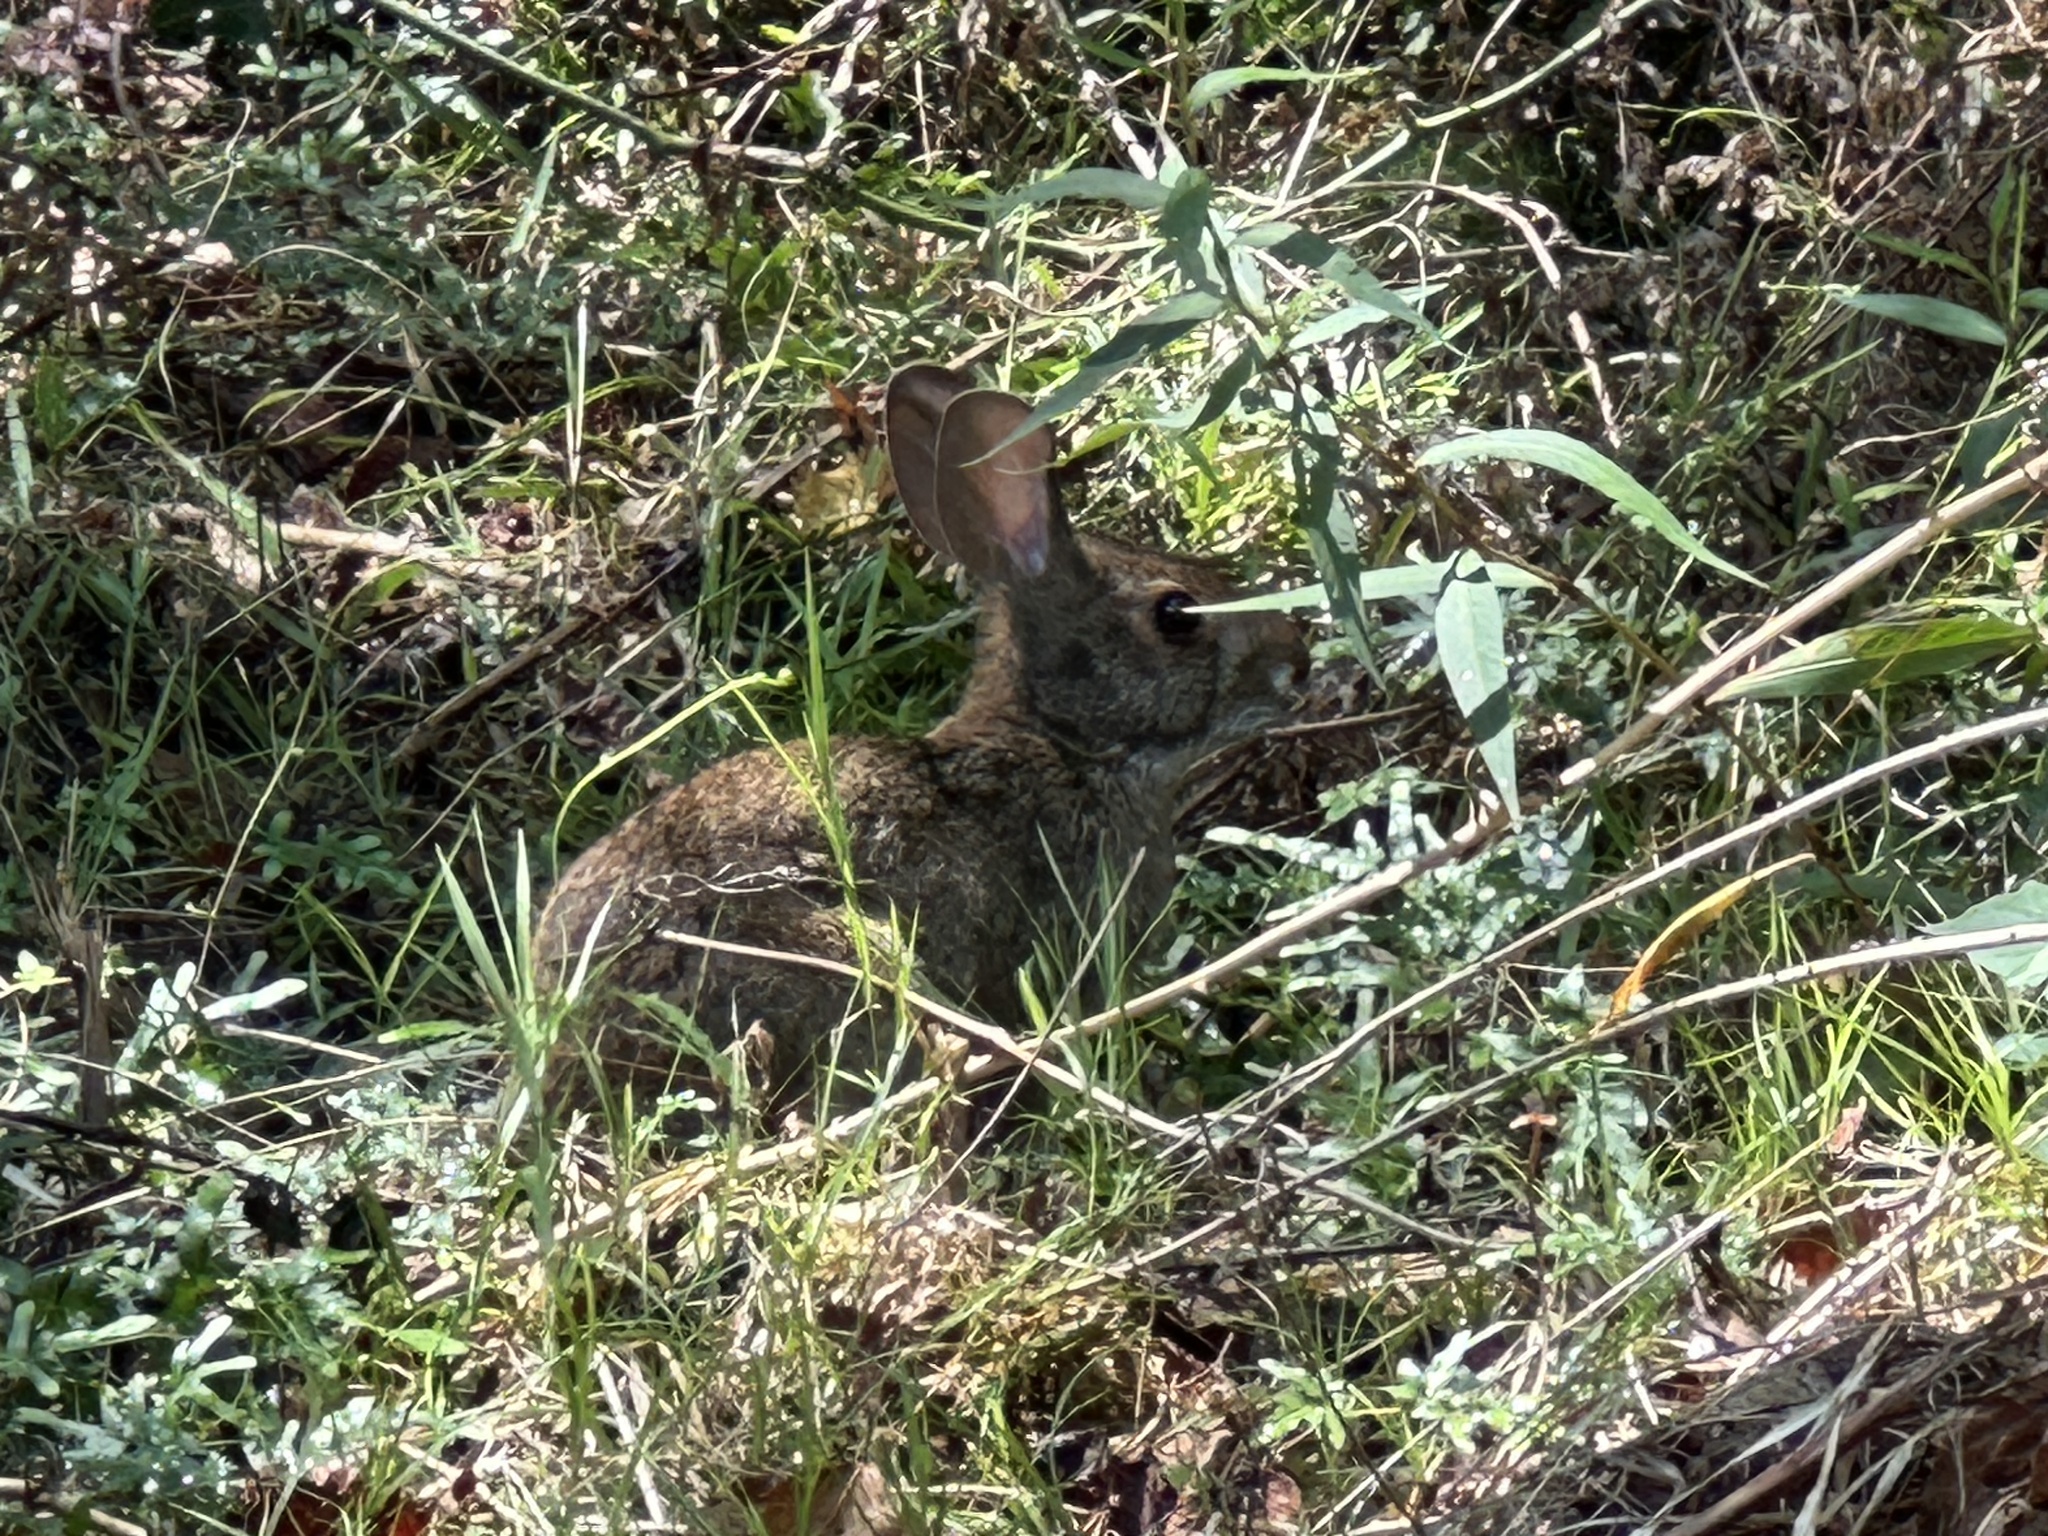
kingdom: Animalia
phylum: Chordata
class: Mammalia
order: Lagomorpha
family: Leporidae
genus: Sylvilagus
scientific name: Sylvilagus aquaticus
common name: Swamp rabbit
